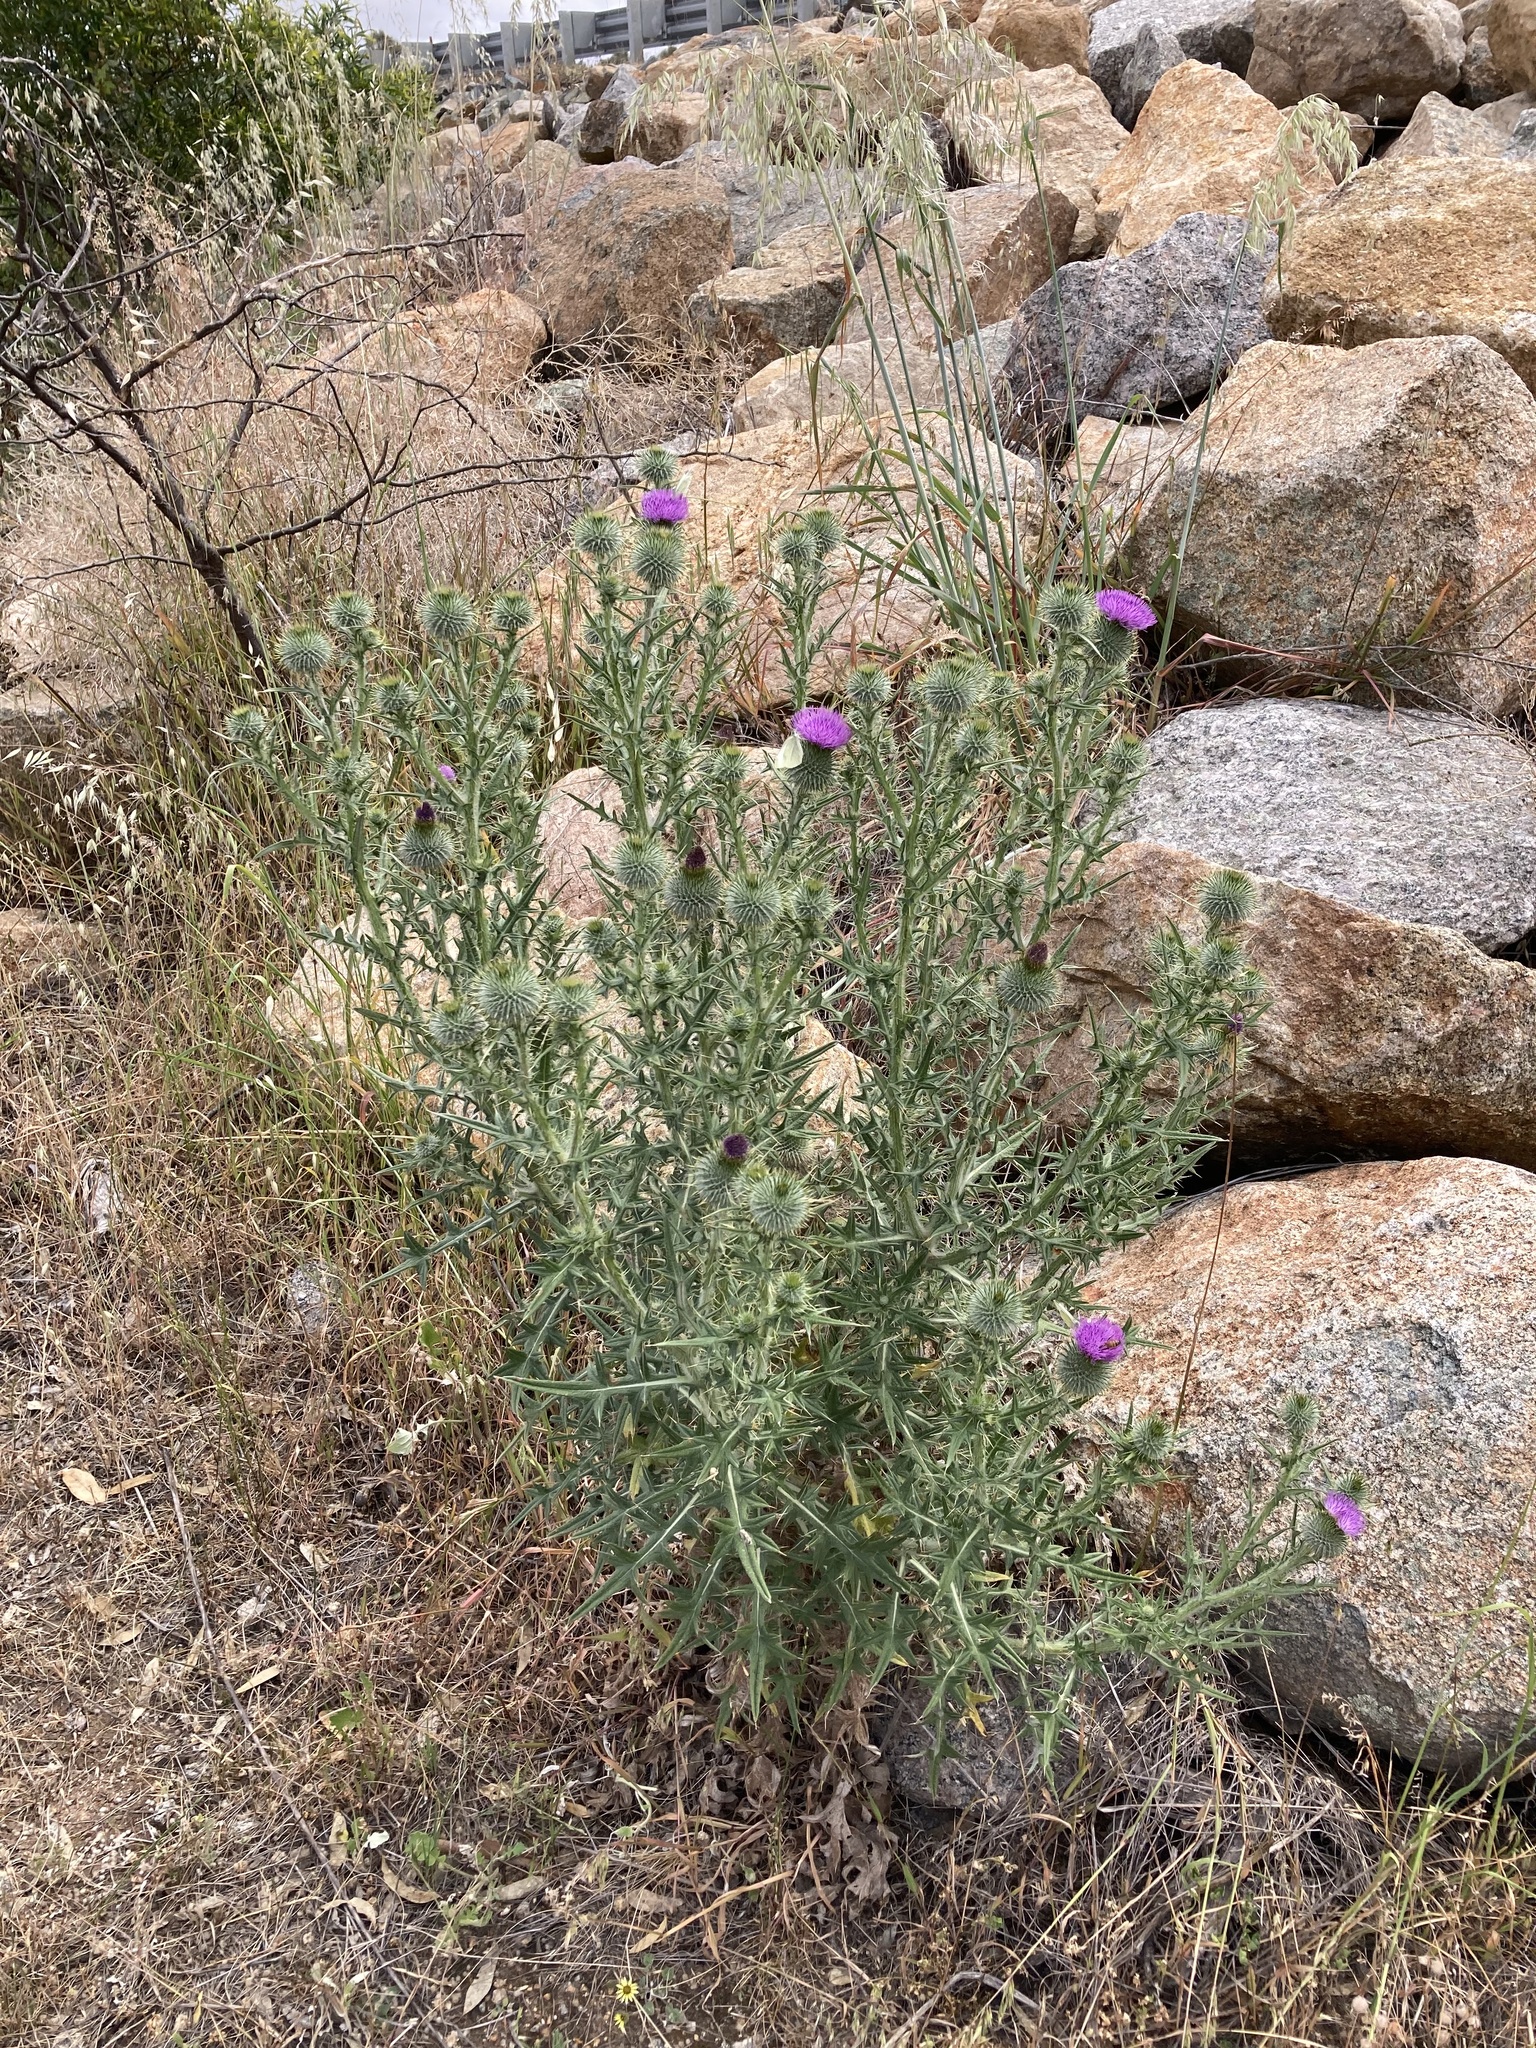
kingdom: Plantae
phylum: Tracheophyta
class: Magnoliopsida
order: Asterales
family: Asteraceae
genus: Cirsium
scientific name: Cirsium vulgare
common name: Bull thistle
